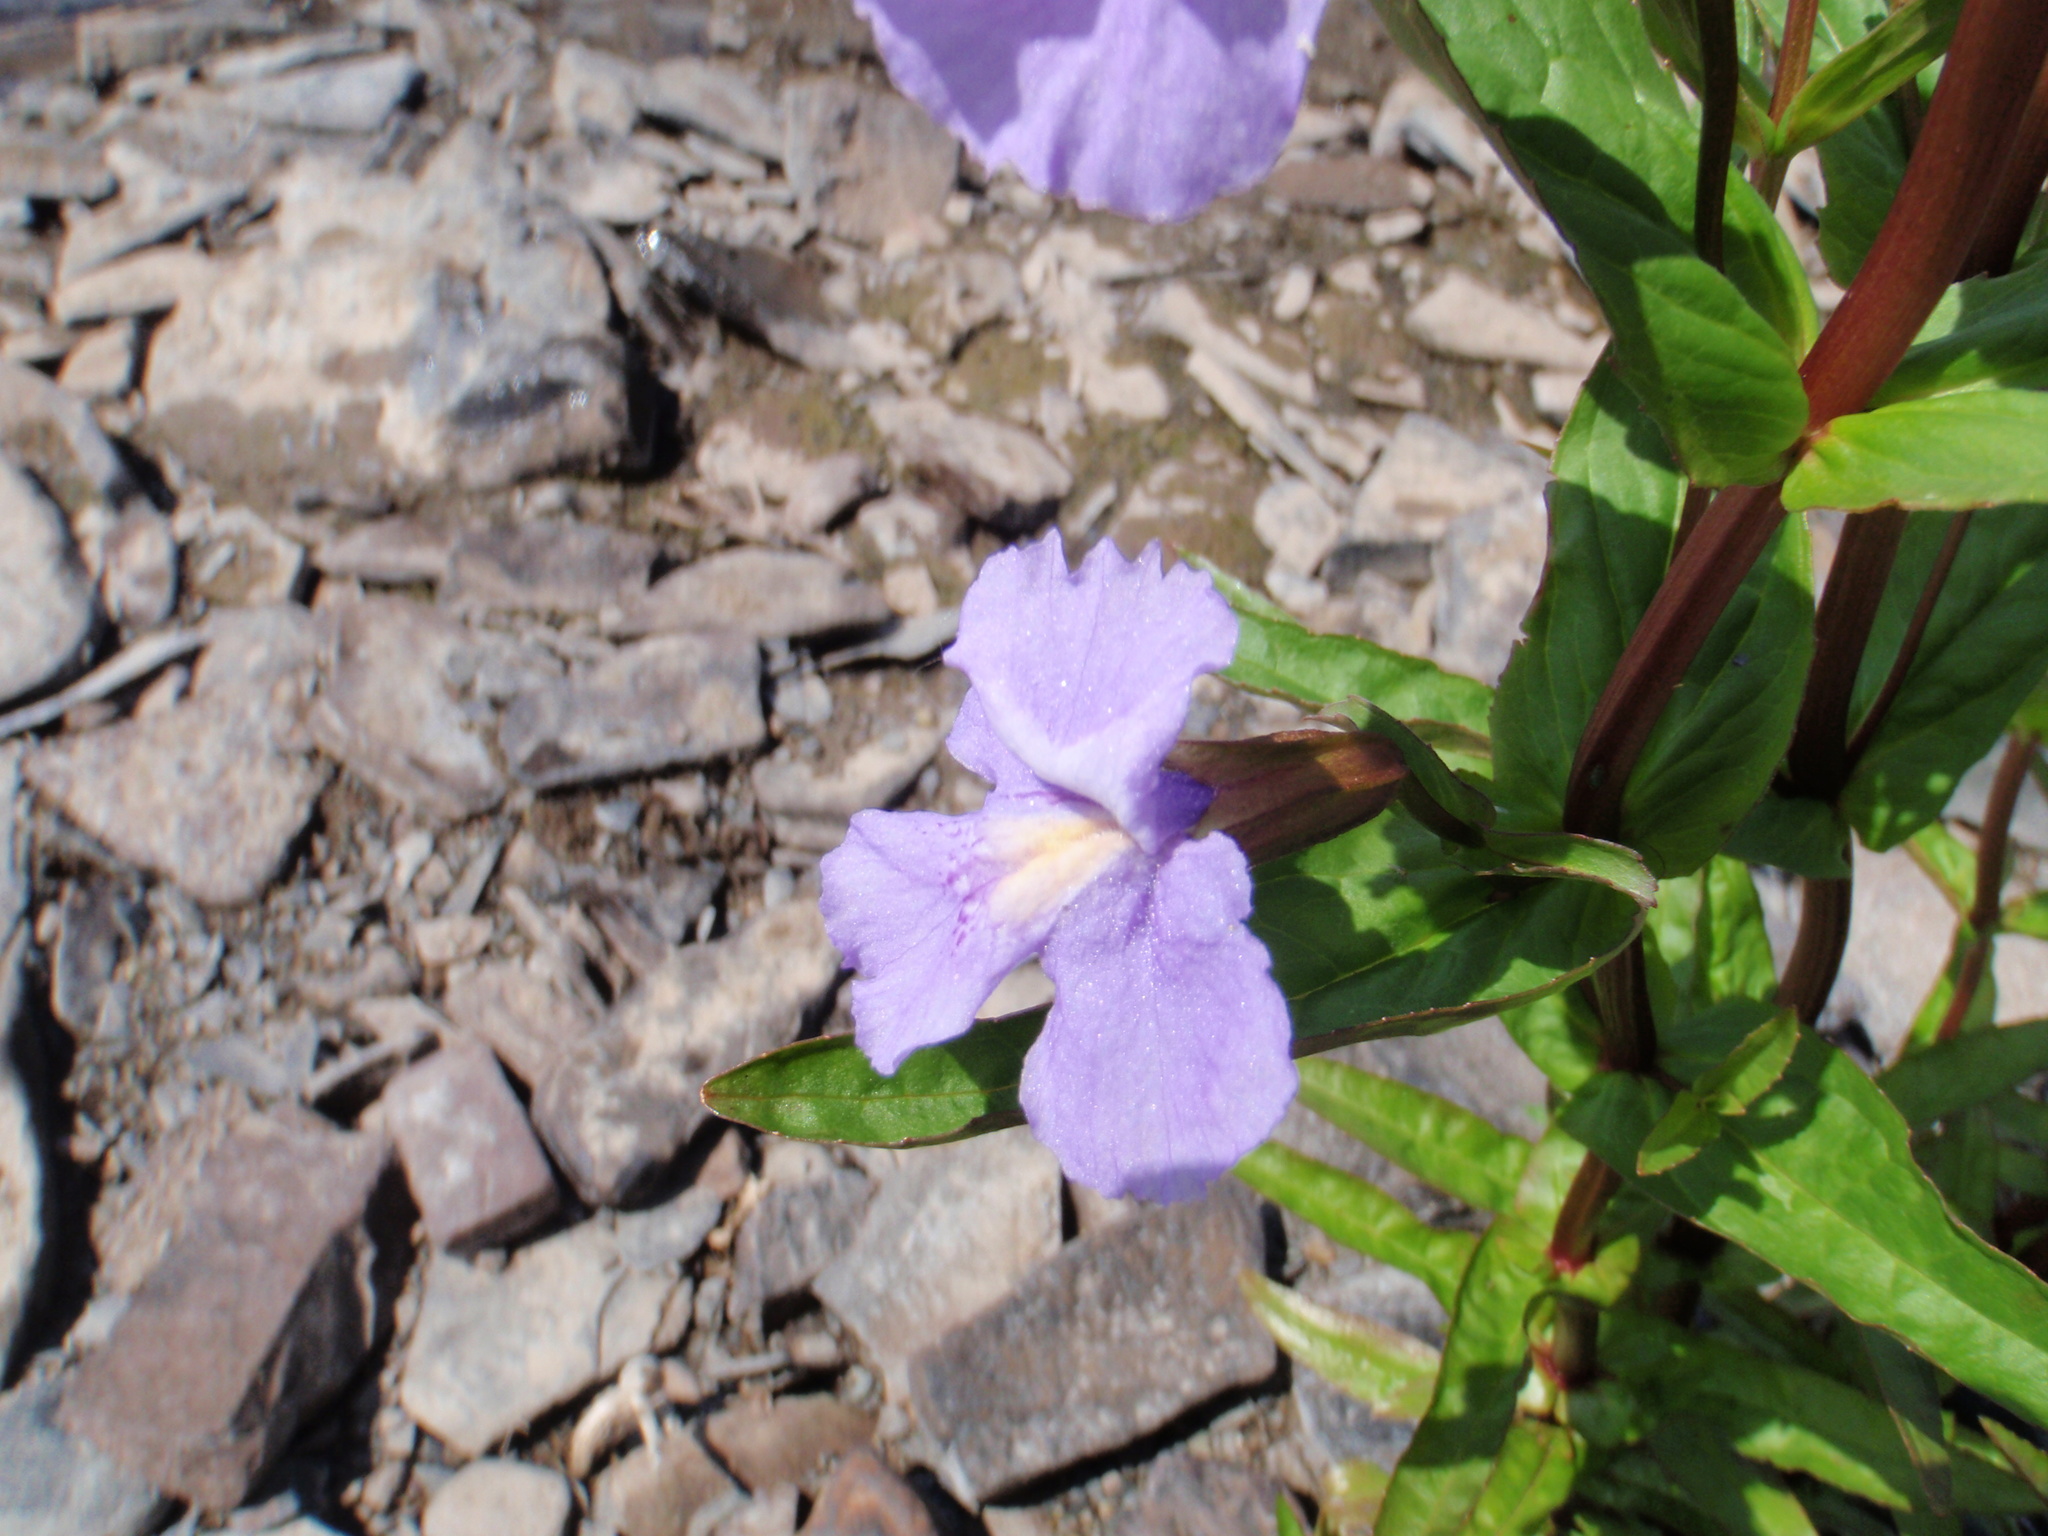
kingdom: Plantae
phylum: Tracheophyta
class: Magnoliopsida
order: Lamiales
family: Phrymaceae
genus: Mimulus
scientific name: Mimulus ringens
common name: Allegheny monkeyflower
